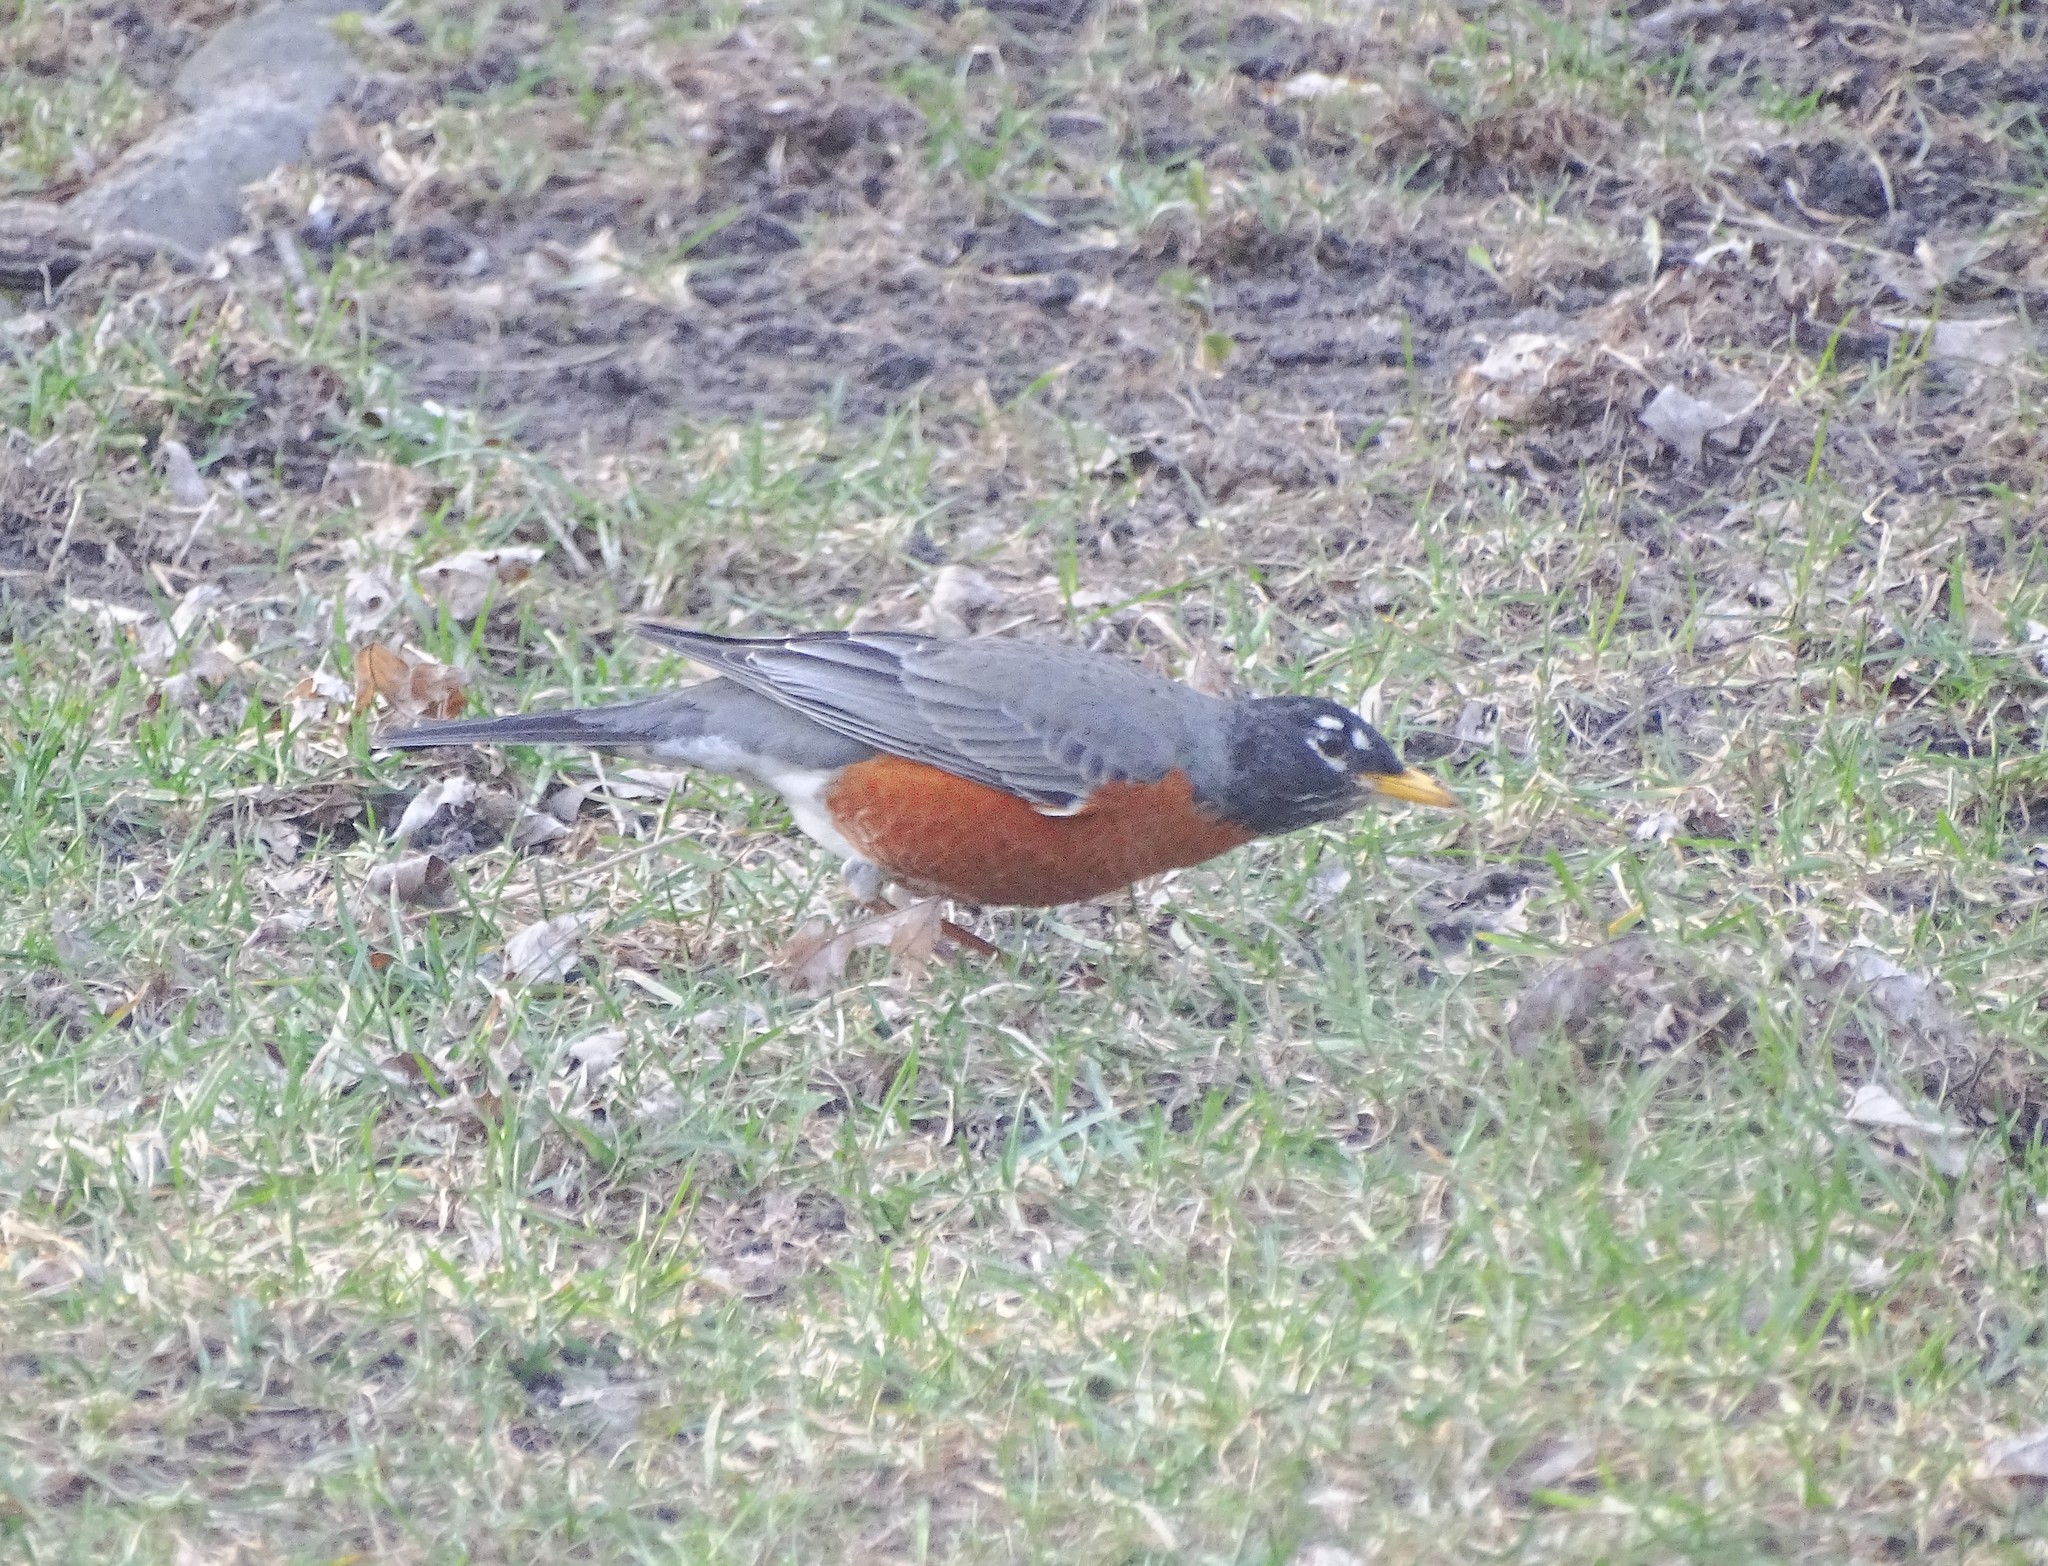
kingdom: Animalia
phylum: Chordata
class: Aves
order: Passeriformes
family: Turdidae
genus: Turdus
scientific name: Turdus migratorius
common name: American robin
